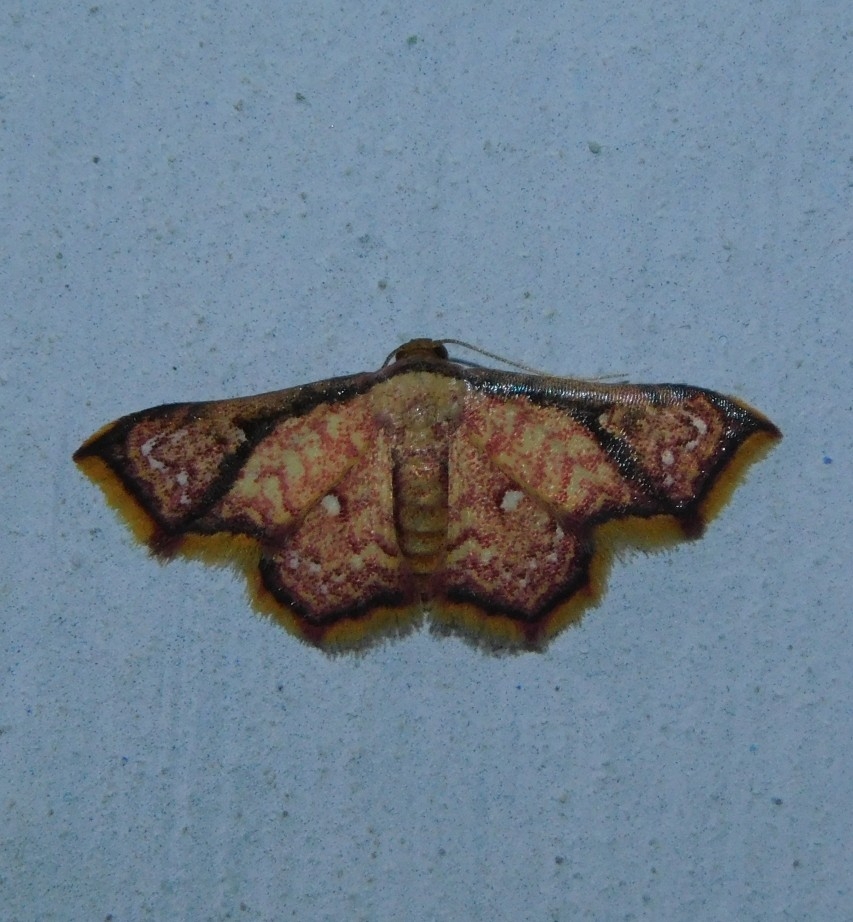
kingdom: Animalia
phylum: Arthropoda
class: Insecta
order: Lepidoptera
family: Noctuidae
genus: Enispa
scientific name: Enispa elataria
